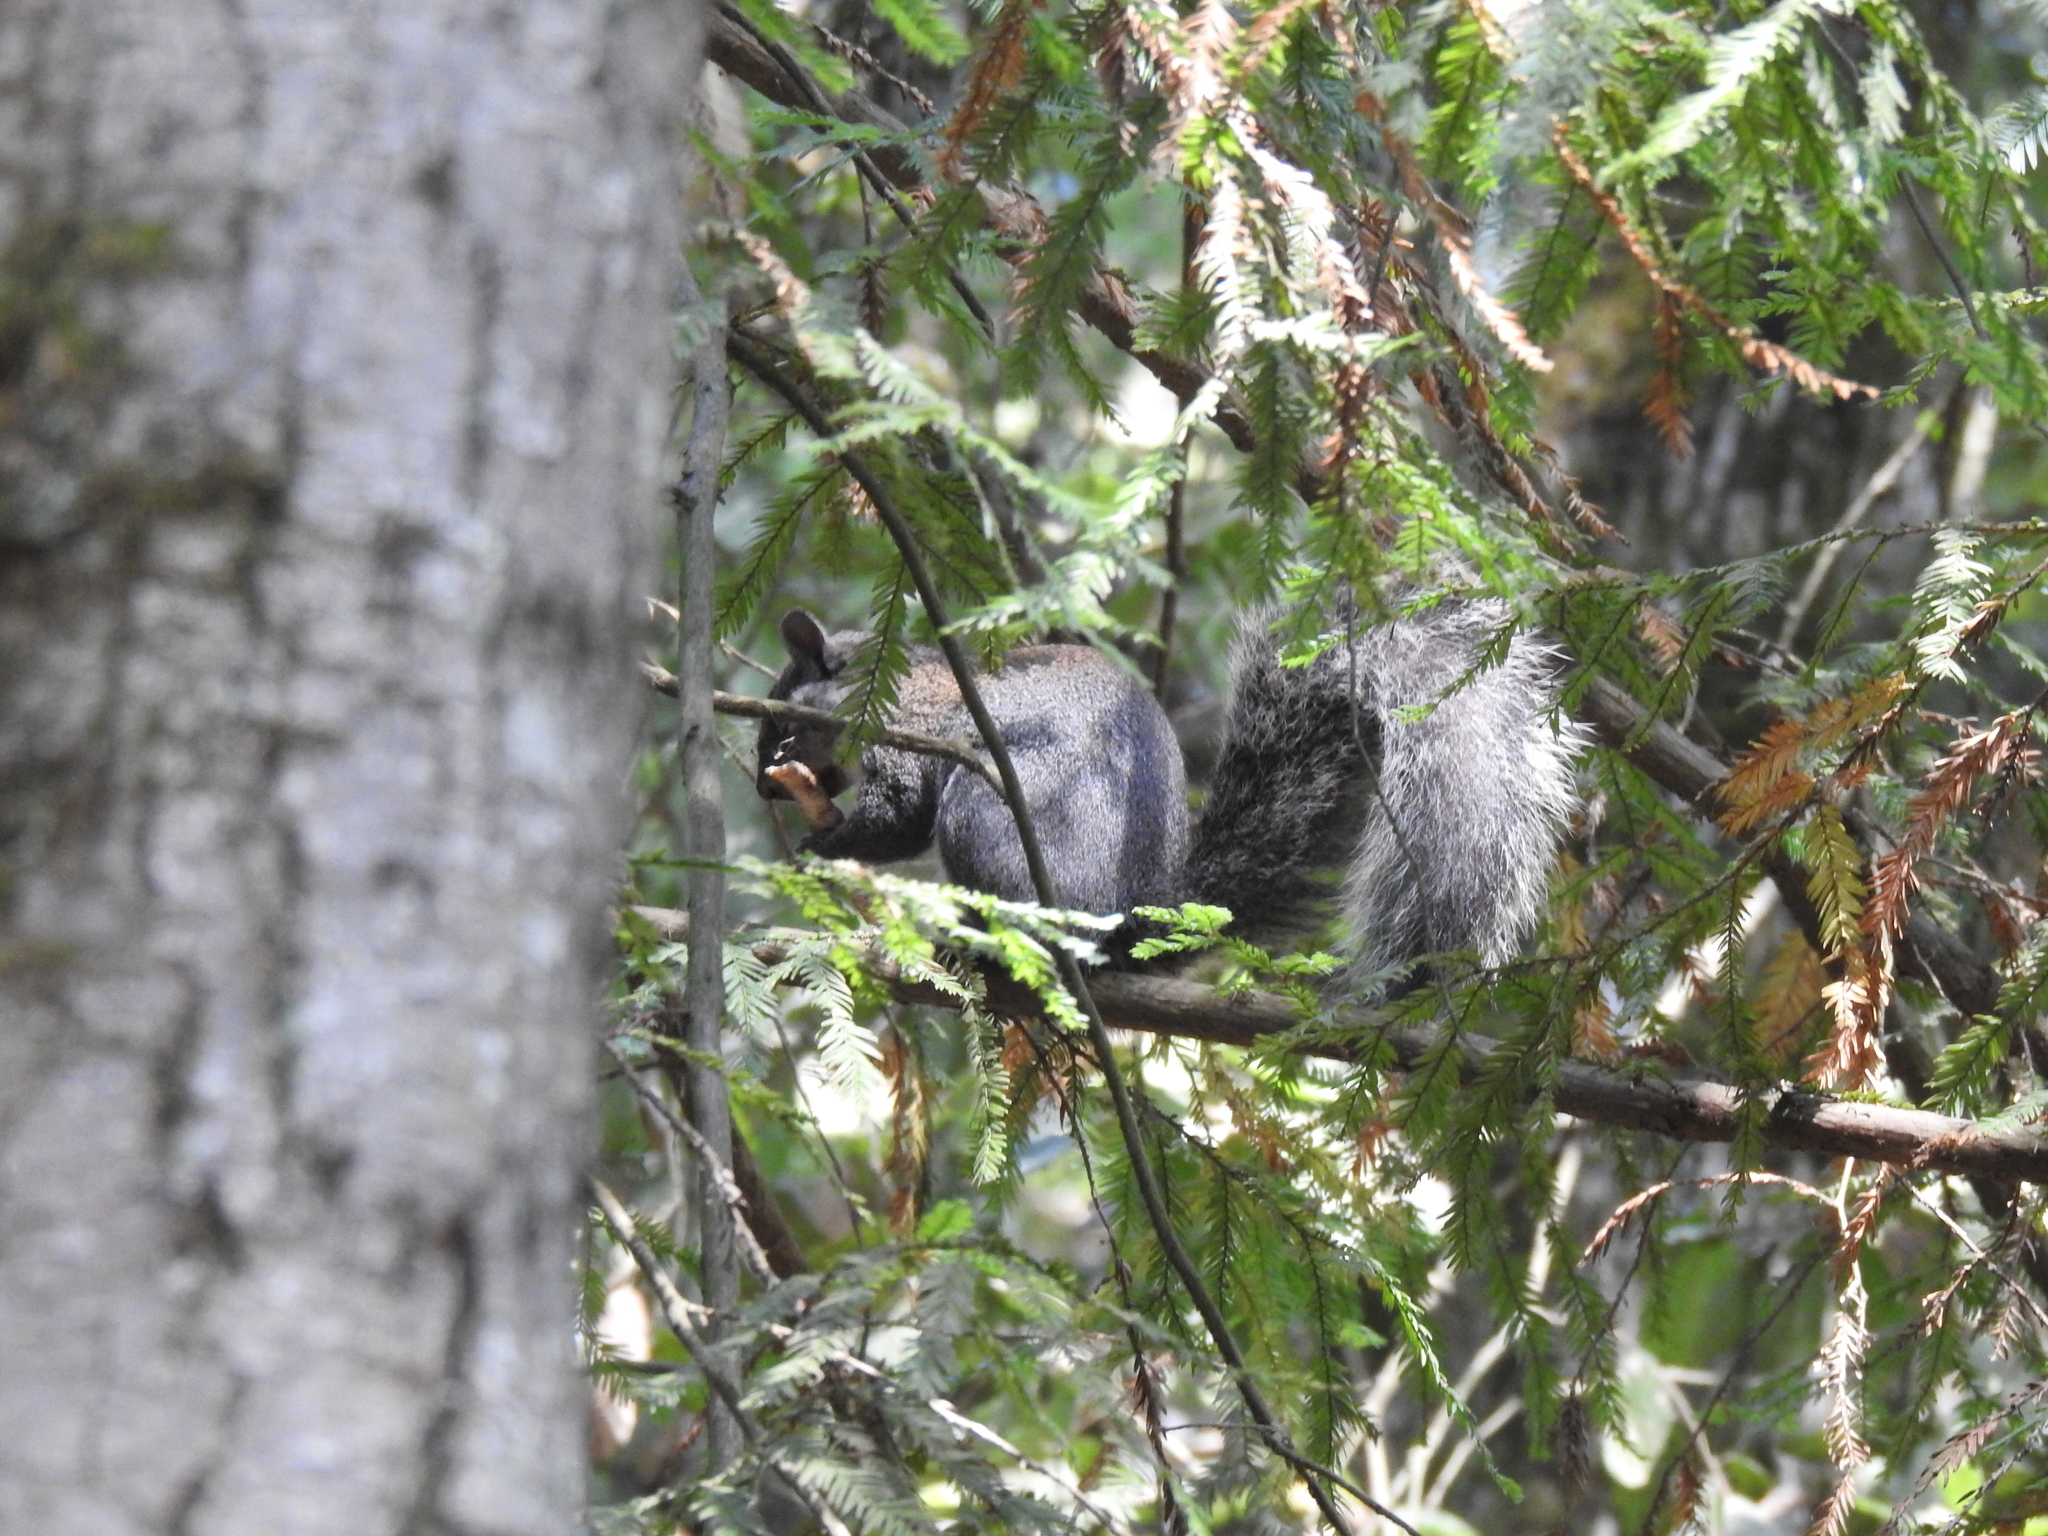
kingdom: Animalia
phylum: Chordata
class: Mammalia
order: Rodentia
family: Sciuridae
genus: Sciurus
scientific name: Sciurus griseus
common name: Western gray squirrel
